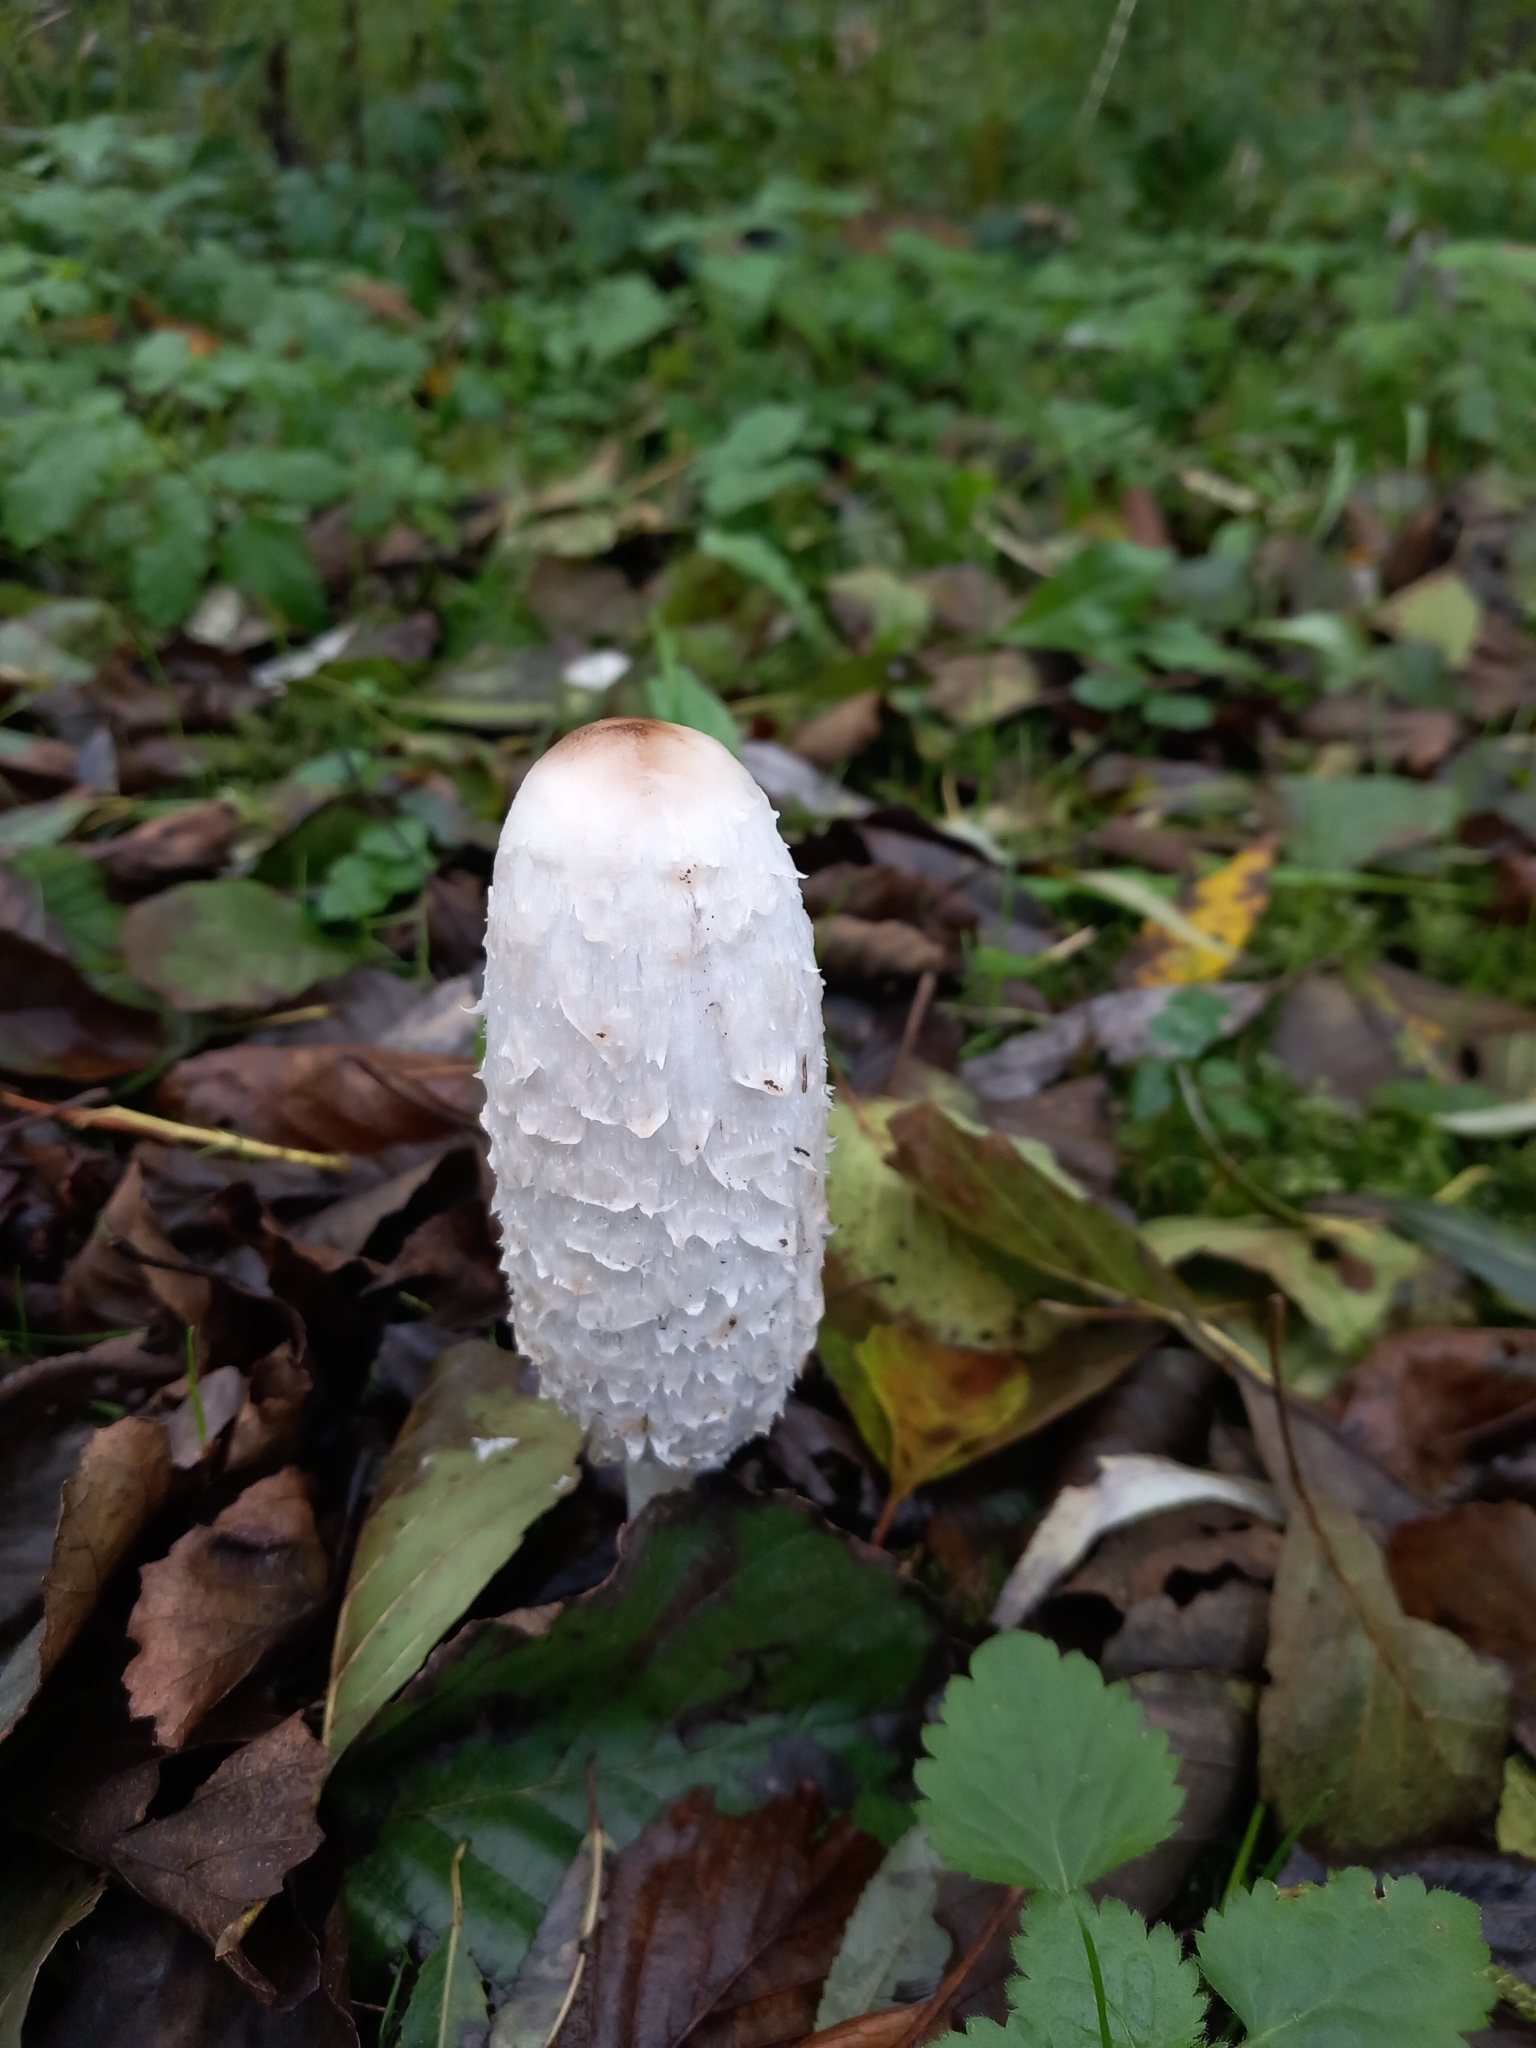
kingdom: Fungi
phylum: Basidiomycota
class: Agaricomycetes
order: Agaricales
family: Agaricaceae
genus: Coprinus
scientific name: Coprinus comatus
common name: Lawyer's wig
